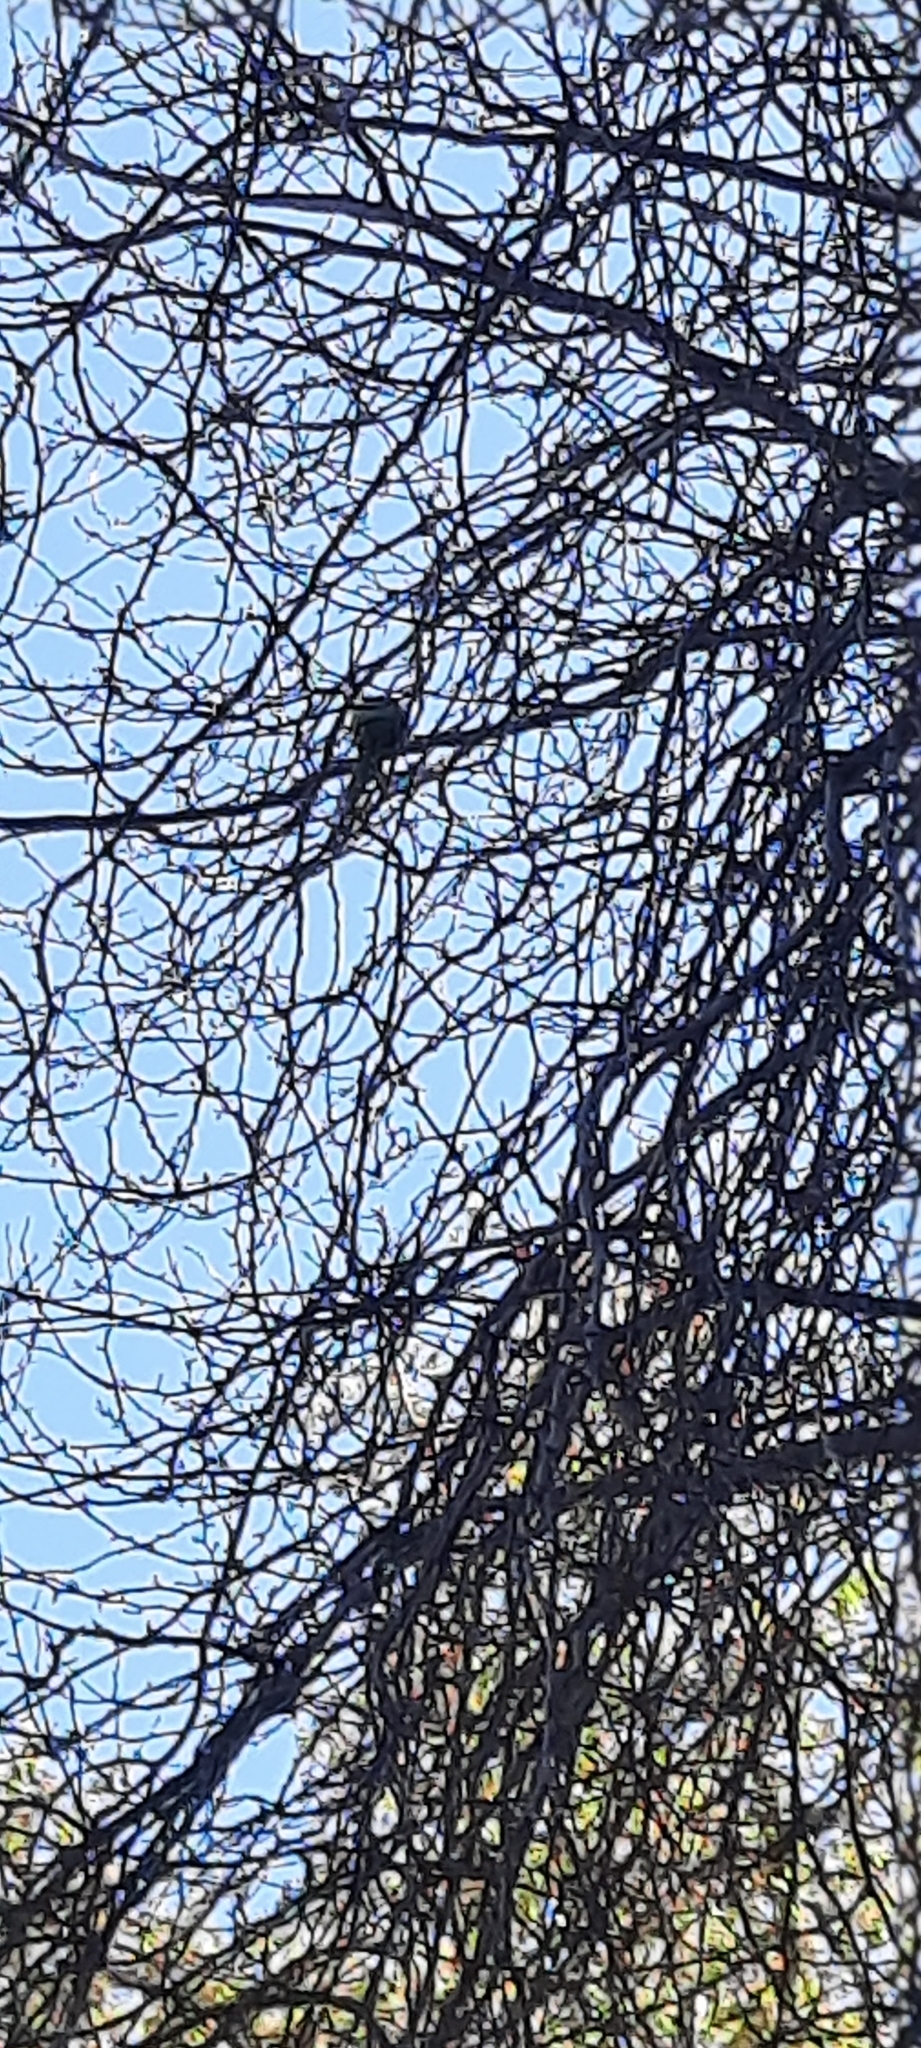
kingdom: Animalia
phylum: Chordata
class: Aves
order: Psittaciformes
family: Psittacidae
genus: Psittacula
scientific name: Psittacula krameri
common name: Rose-ringed parakeet
